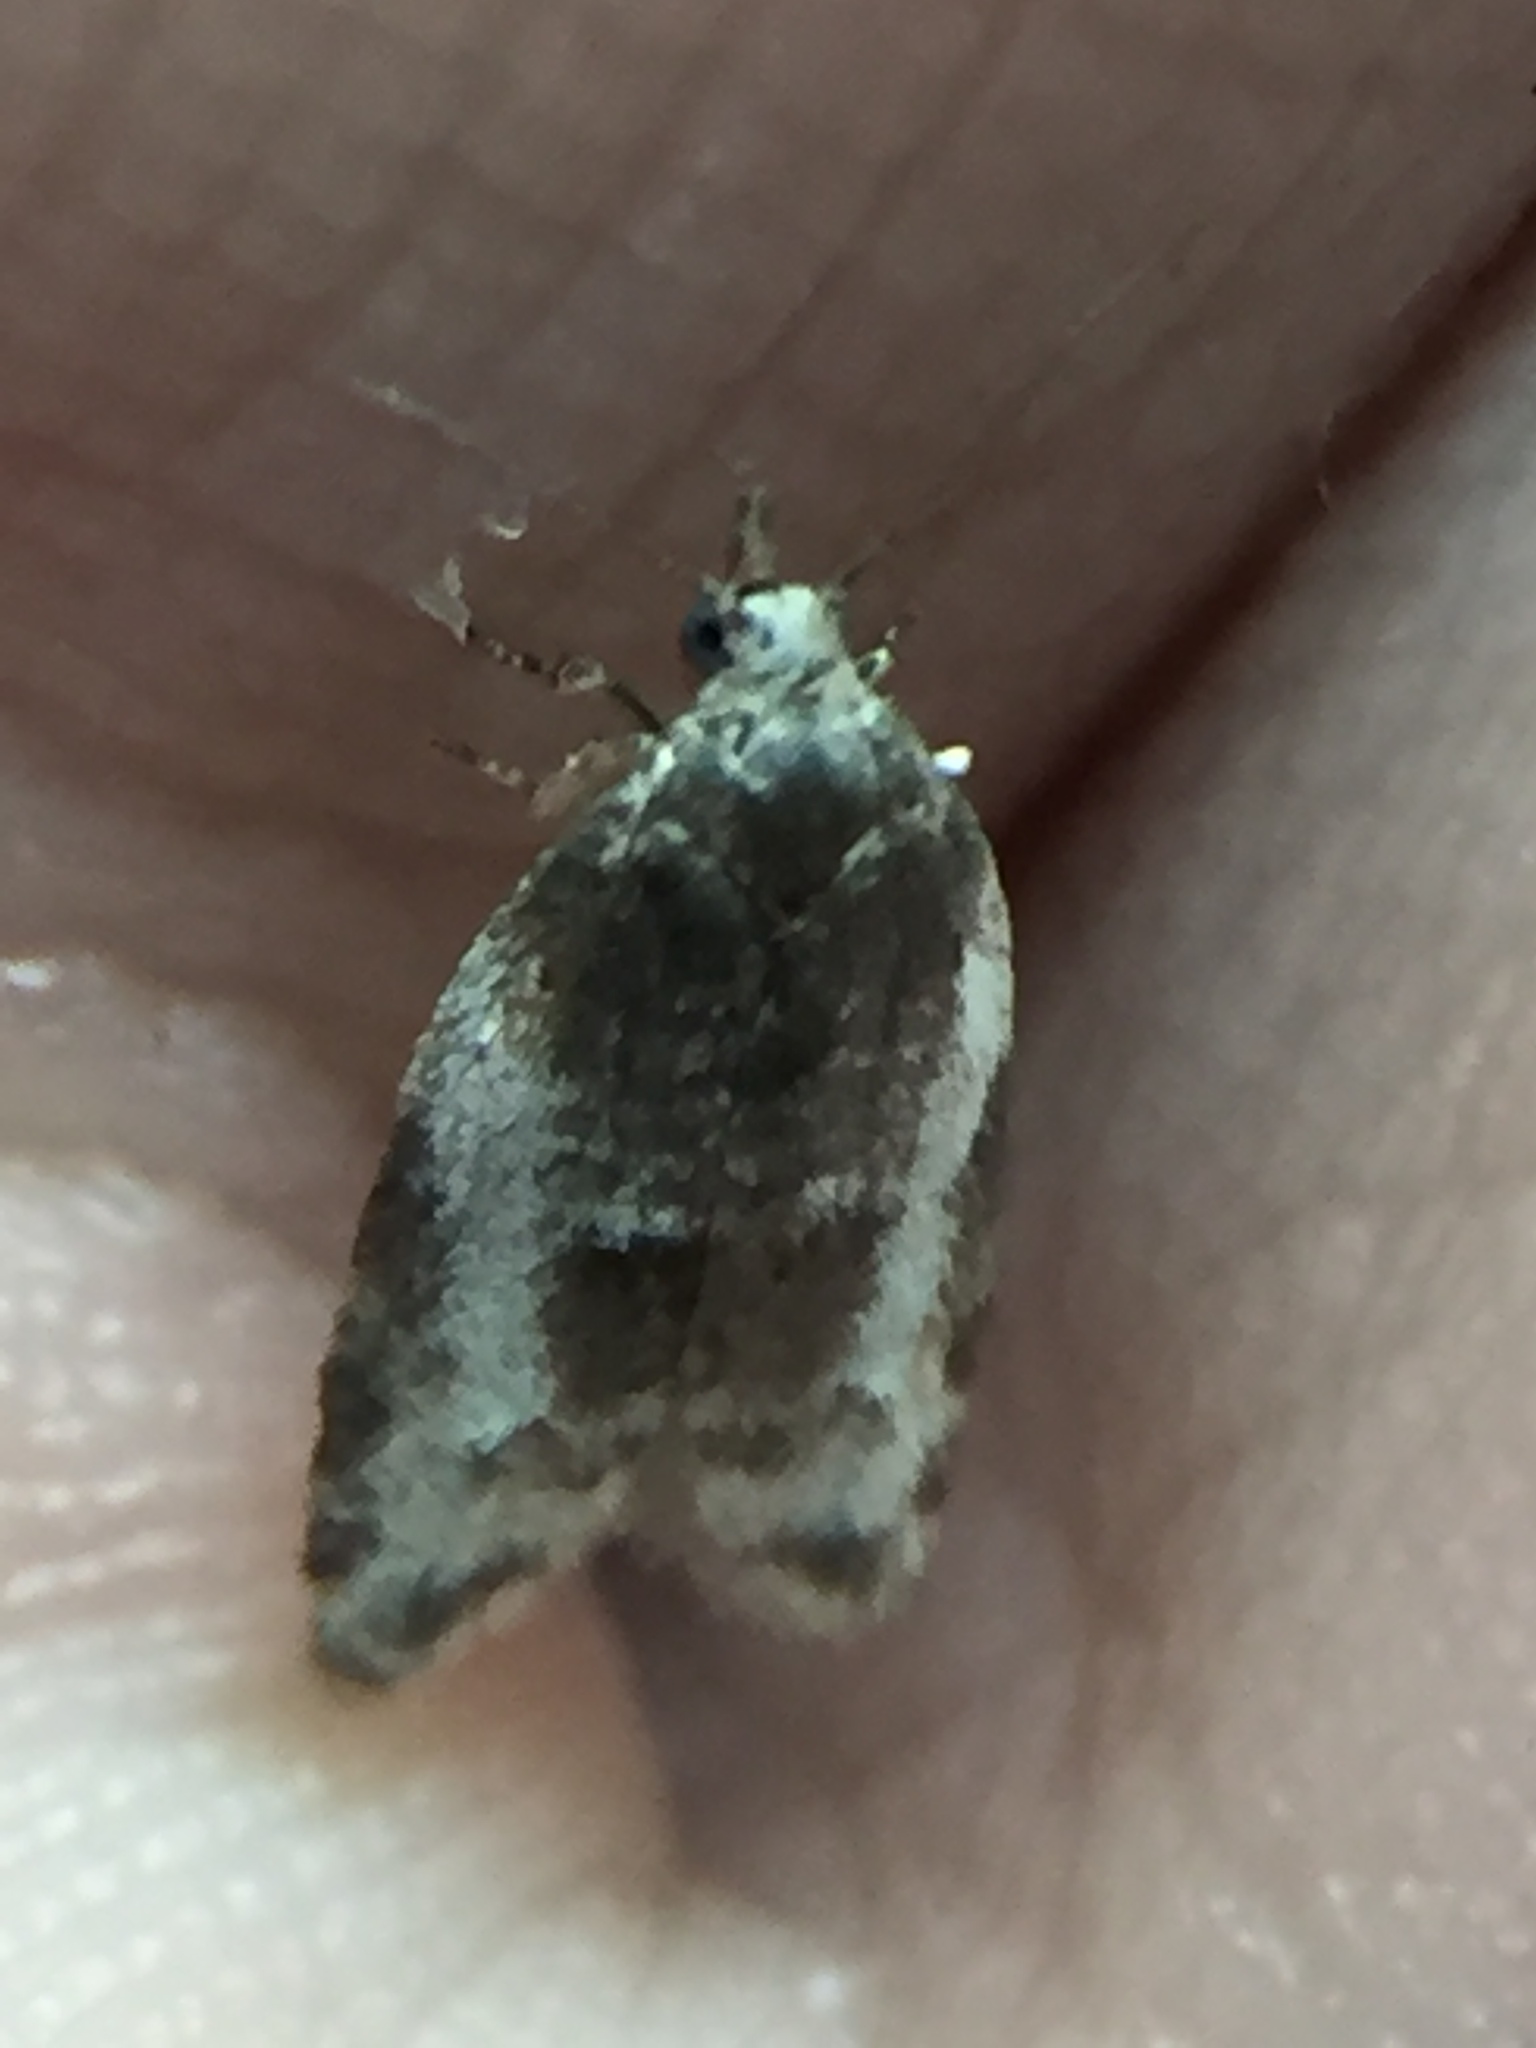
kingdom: Animalia
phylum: Arthropoda
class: Insecta
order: Lepidoptera
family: Tortricidae
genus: Prothelymna
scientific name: Prothelymna niphostrota
